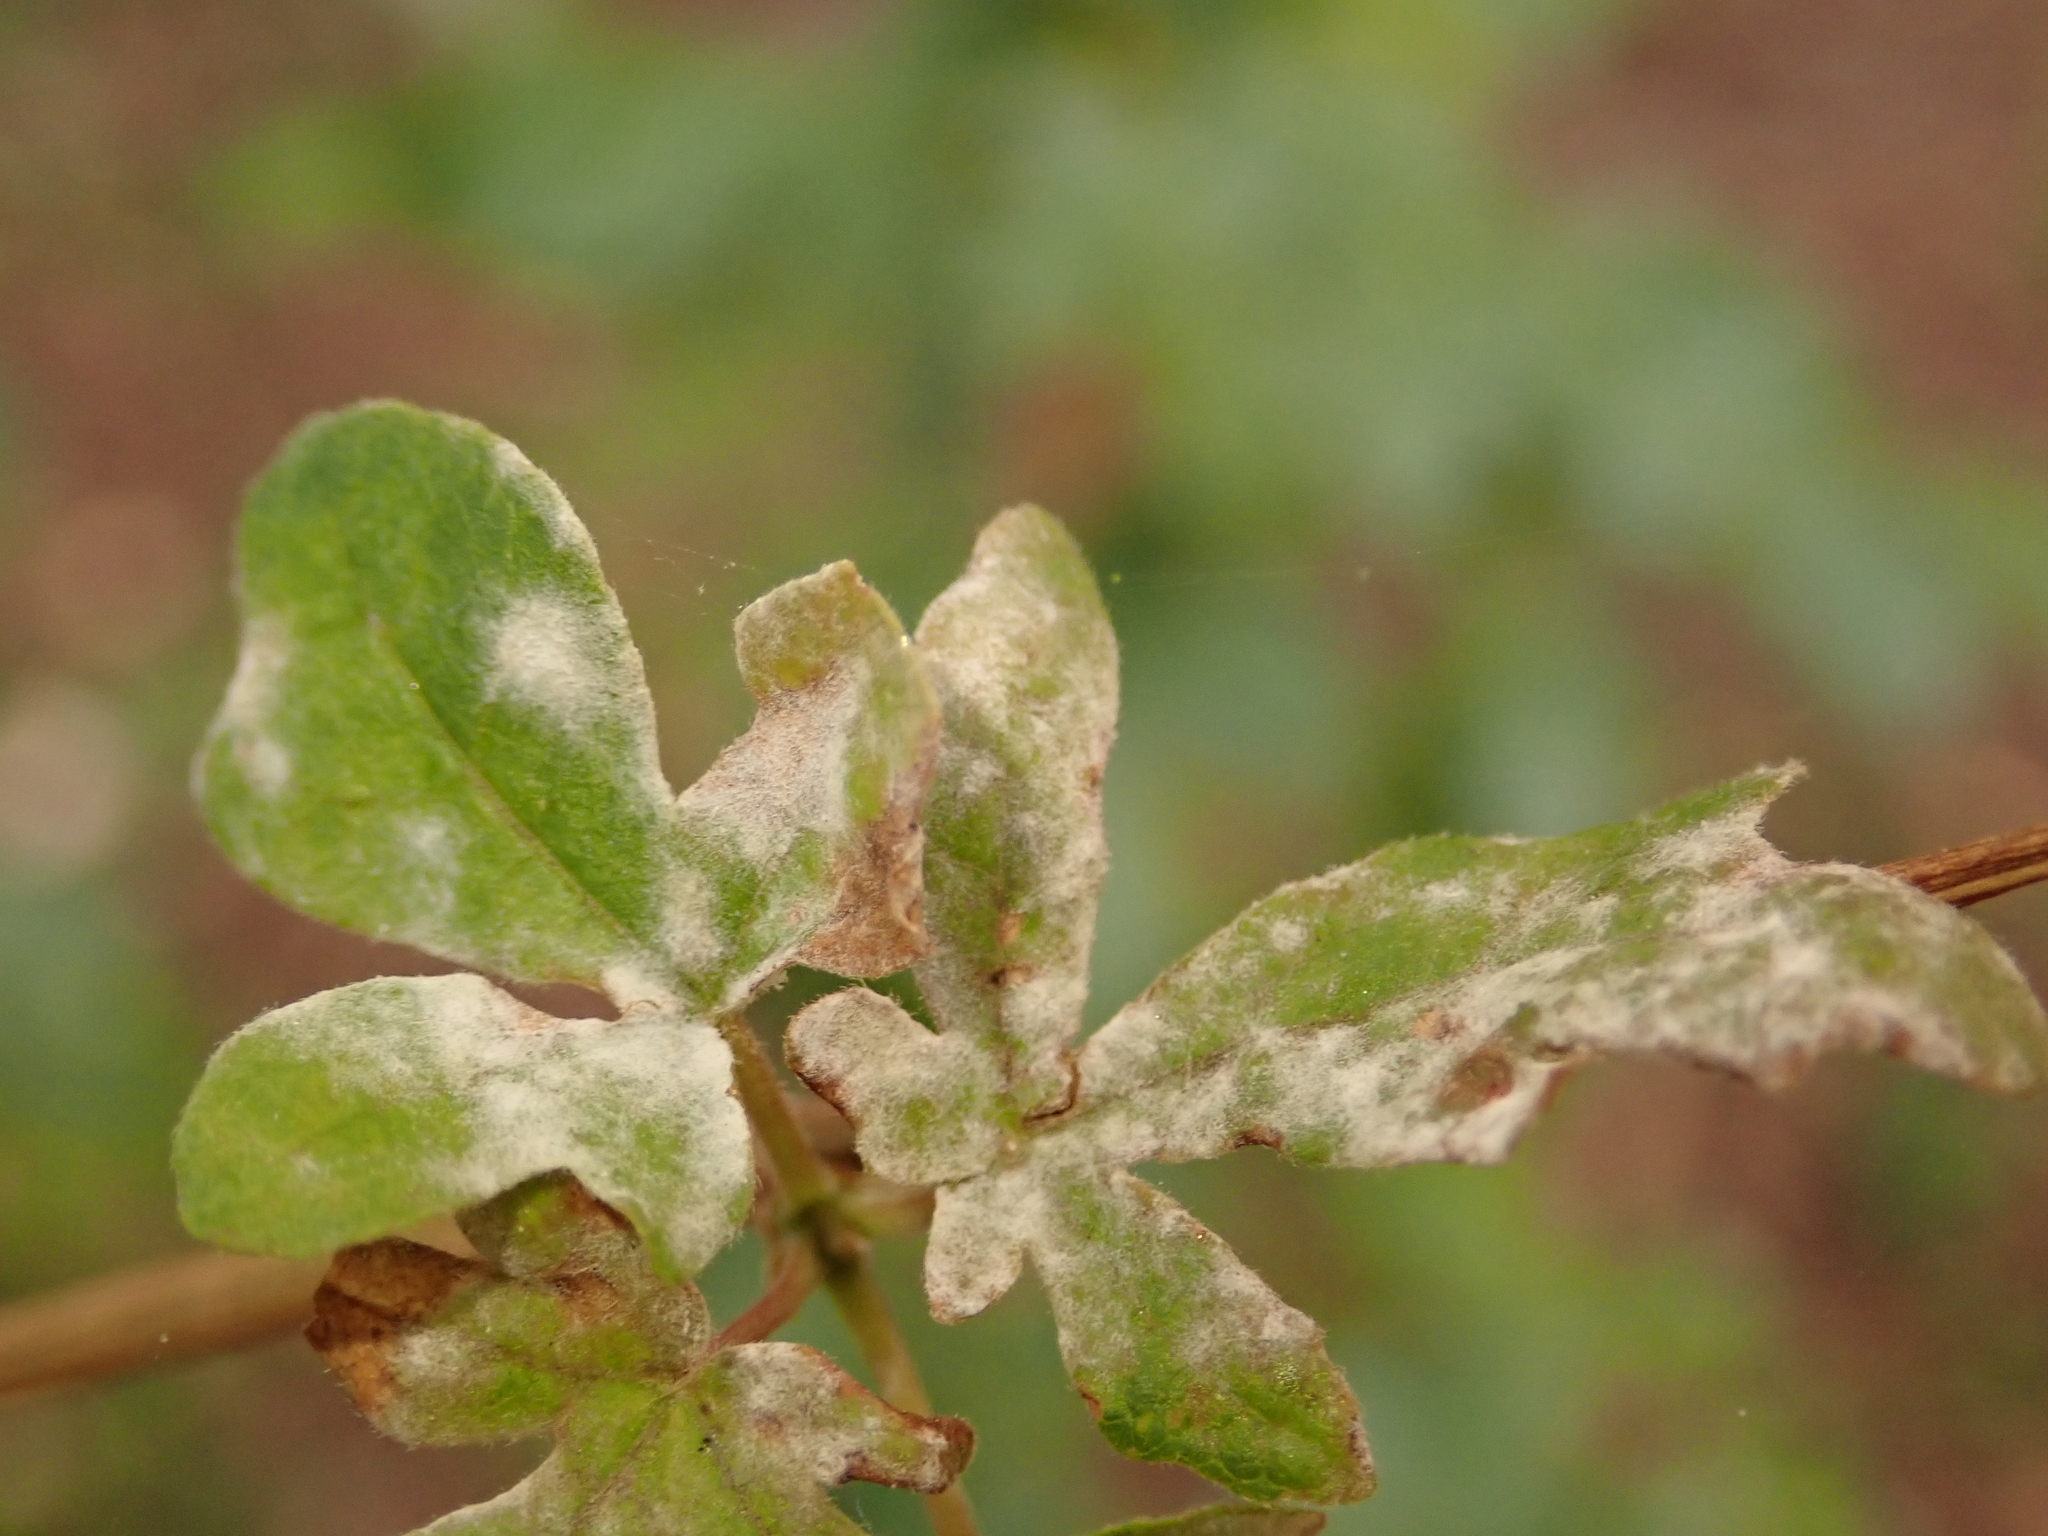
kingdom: Fungi
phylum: Ascomycota
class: Leotiomycetes
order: Helotiales
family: Erysiphaceae
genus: Sawadaea
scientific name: Sawadaea bicornis
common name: Maple mildew
